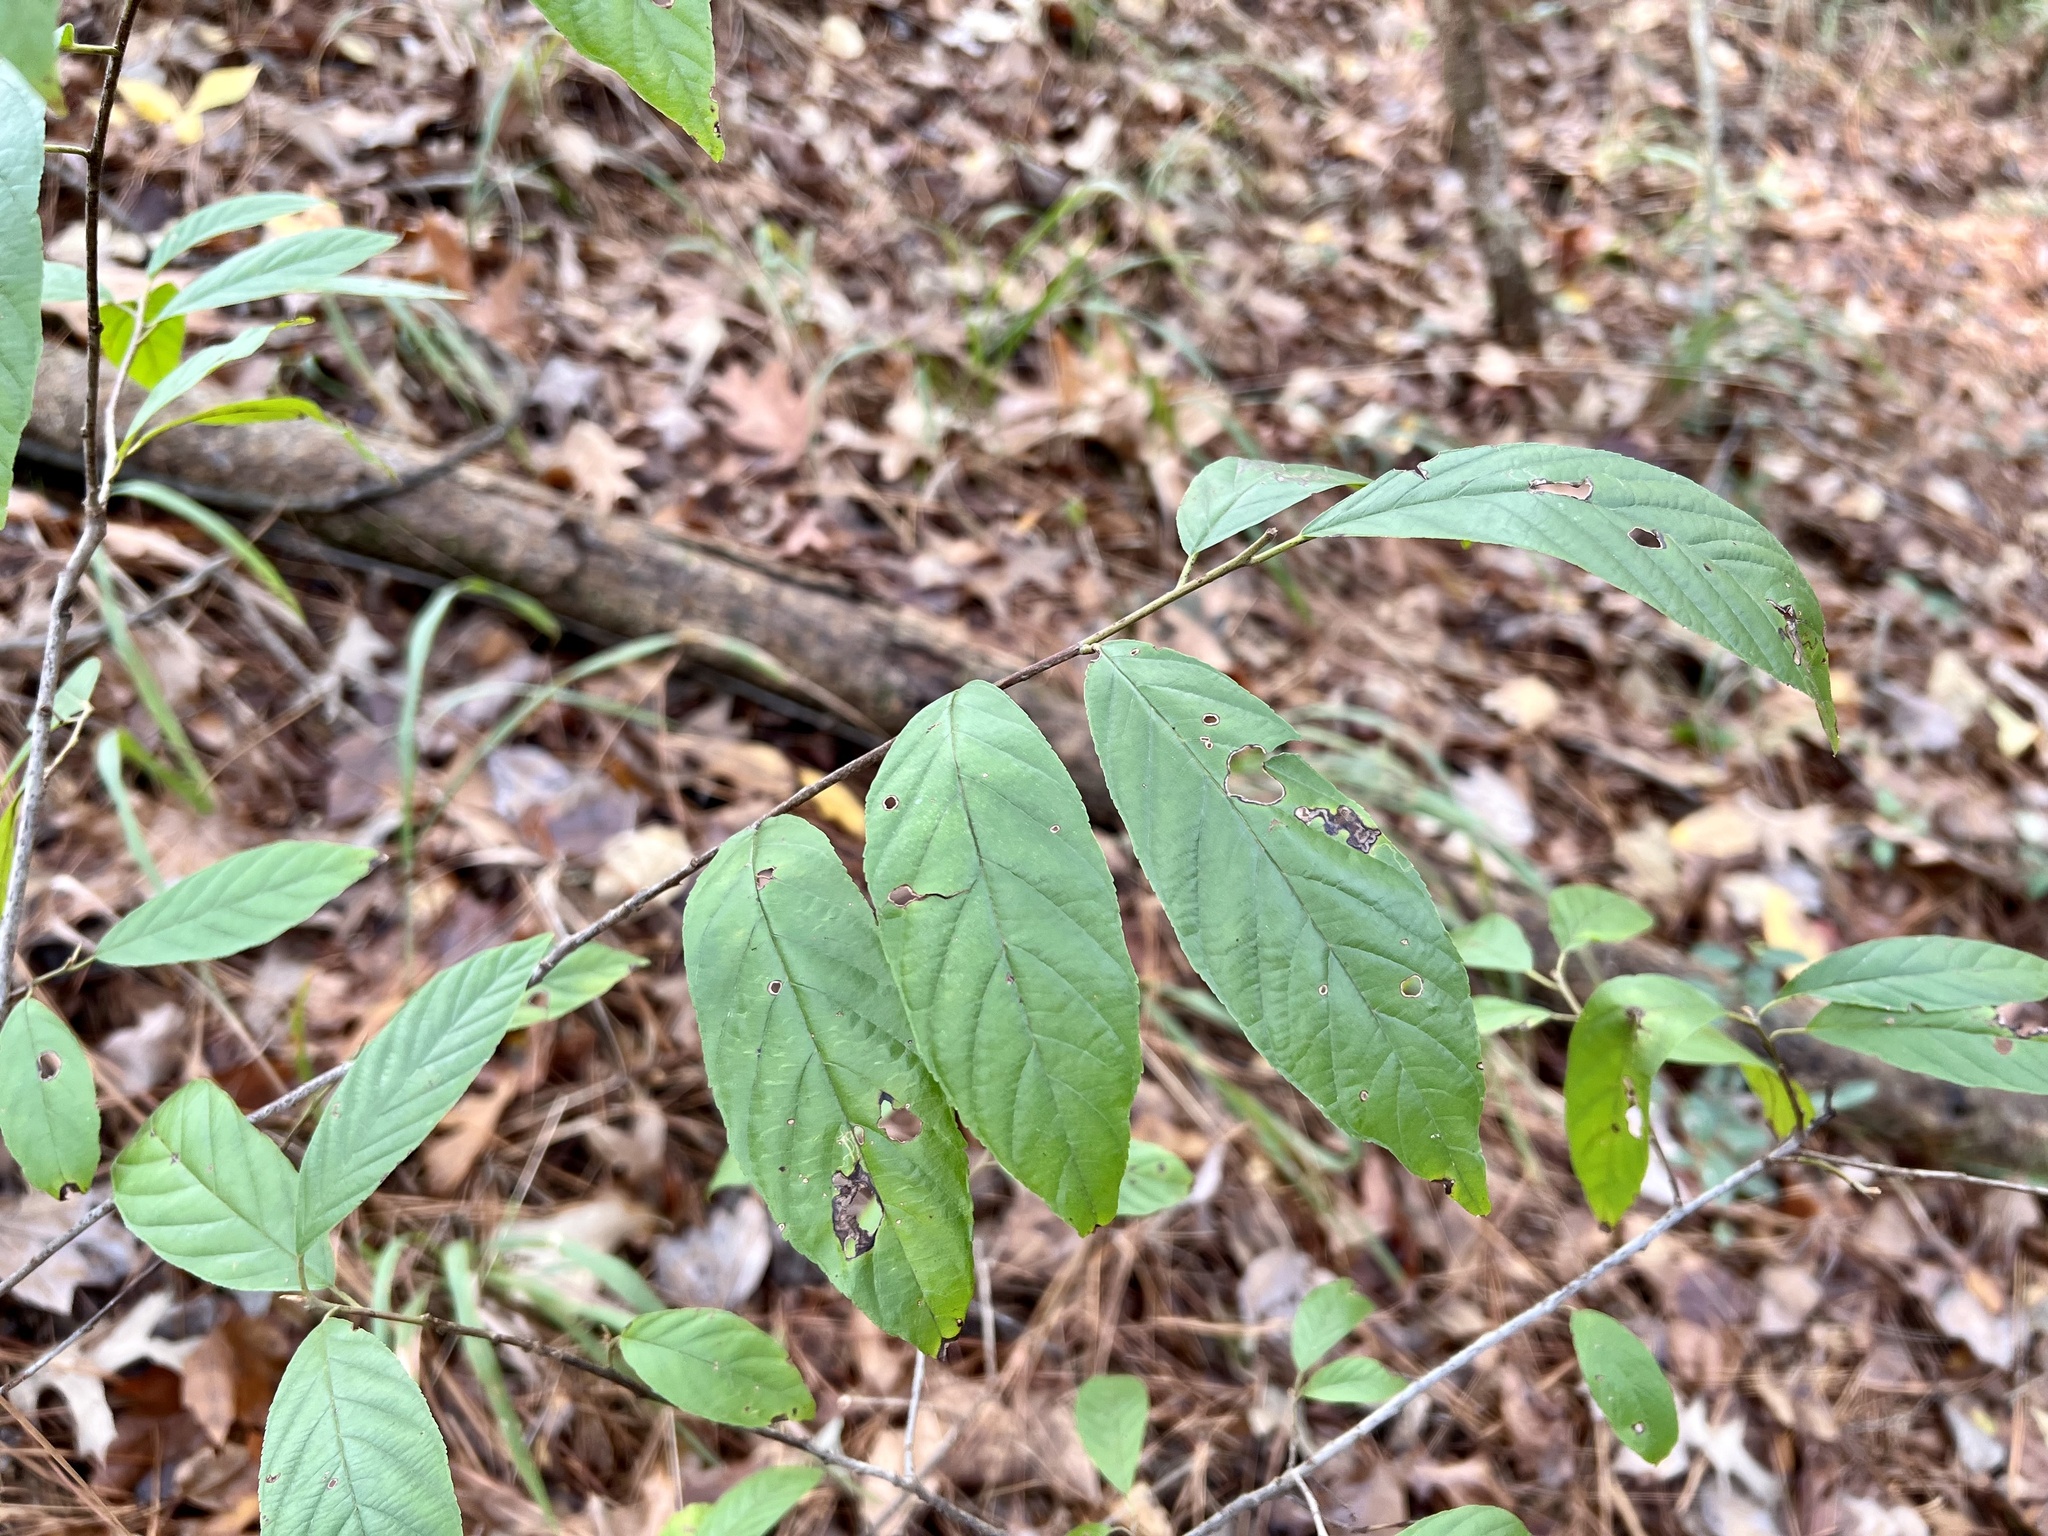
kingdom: Plantae
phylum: Tracheophyta
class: Magnoliopsida
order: Rosales
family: Rhamnaceae
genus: Frangula
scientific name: Frangula caroliniana
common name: Carolina buckthorn
